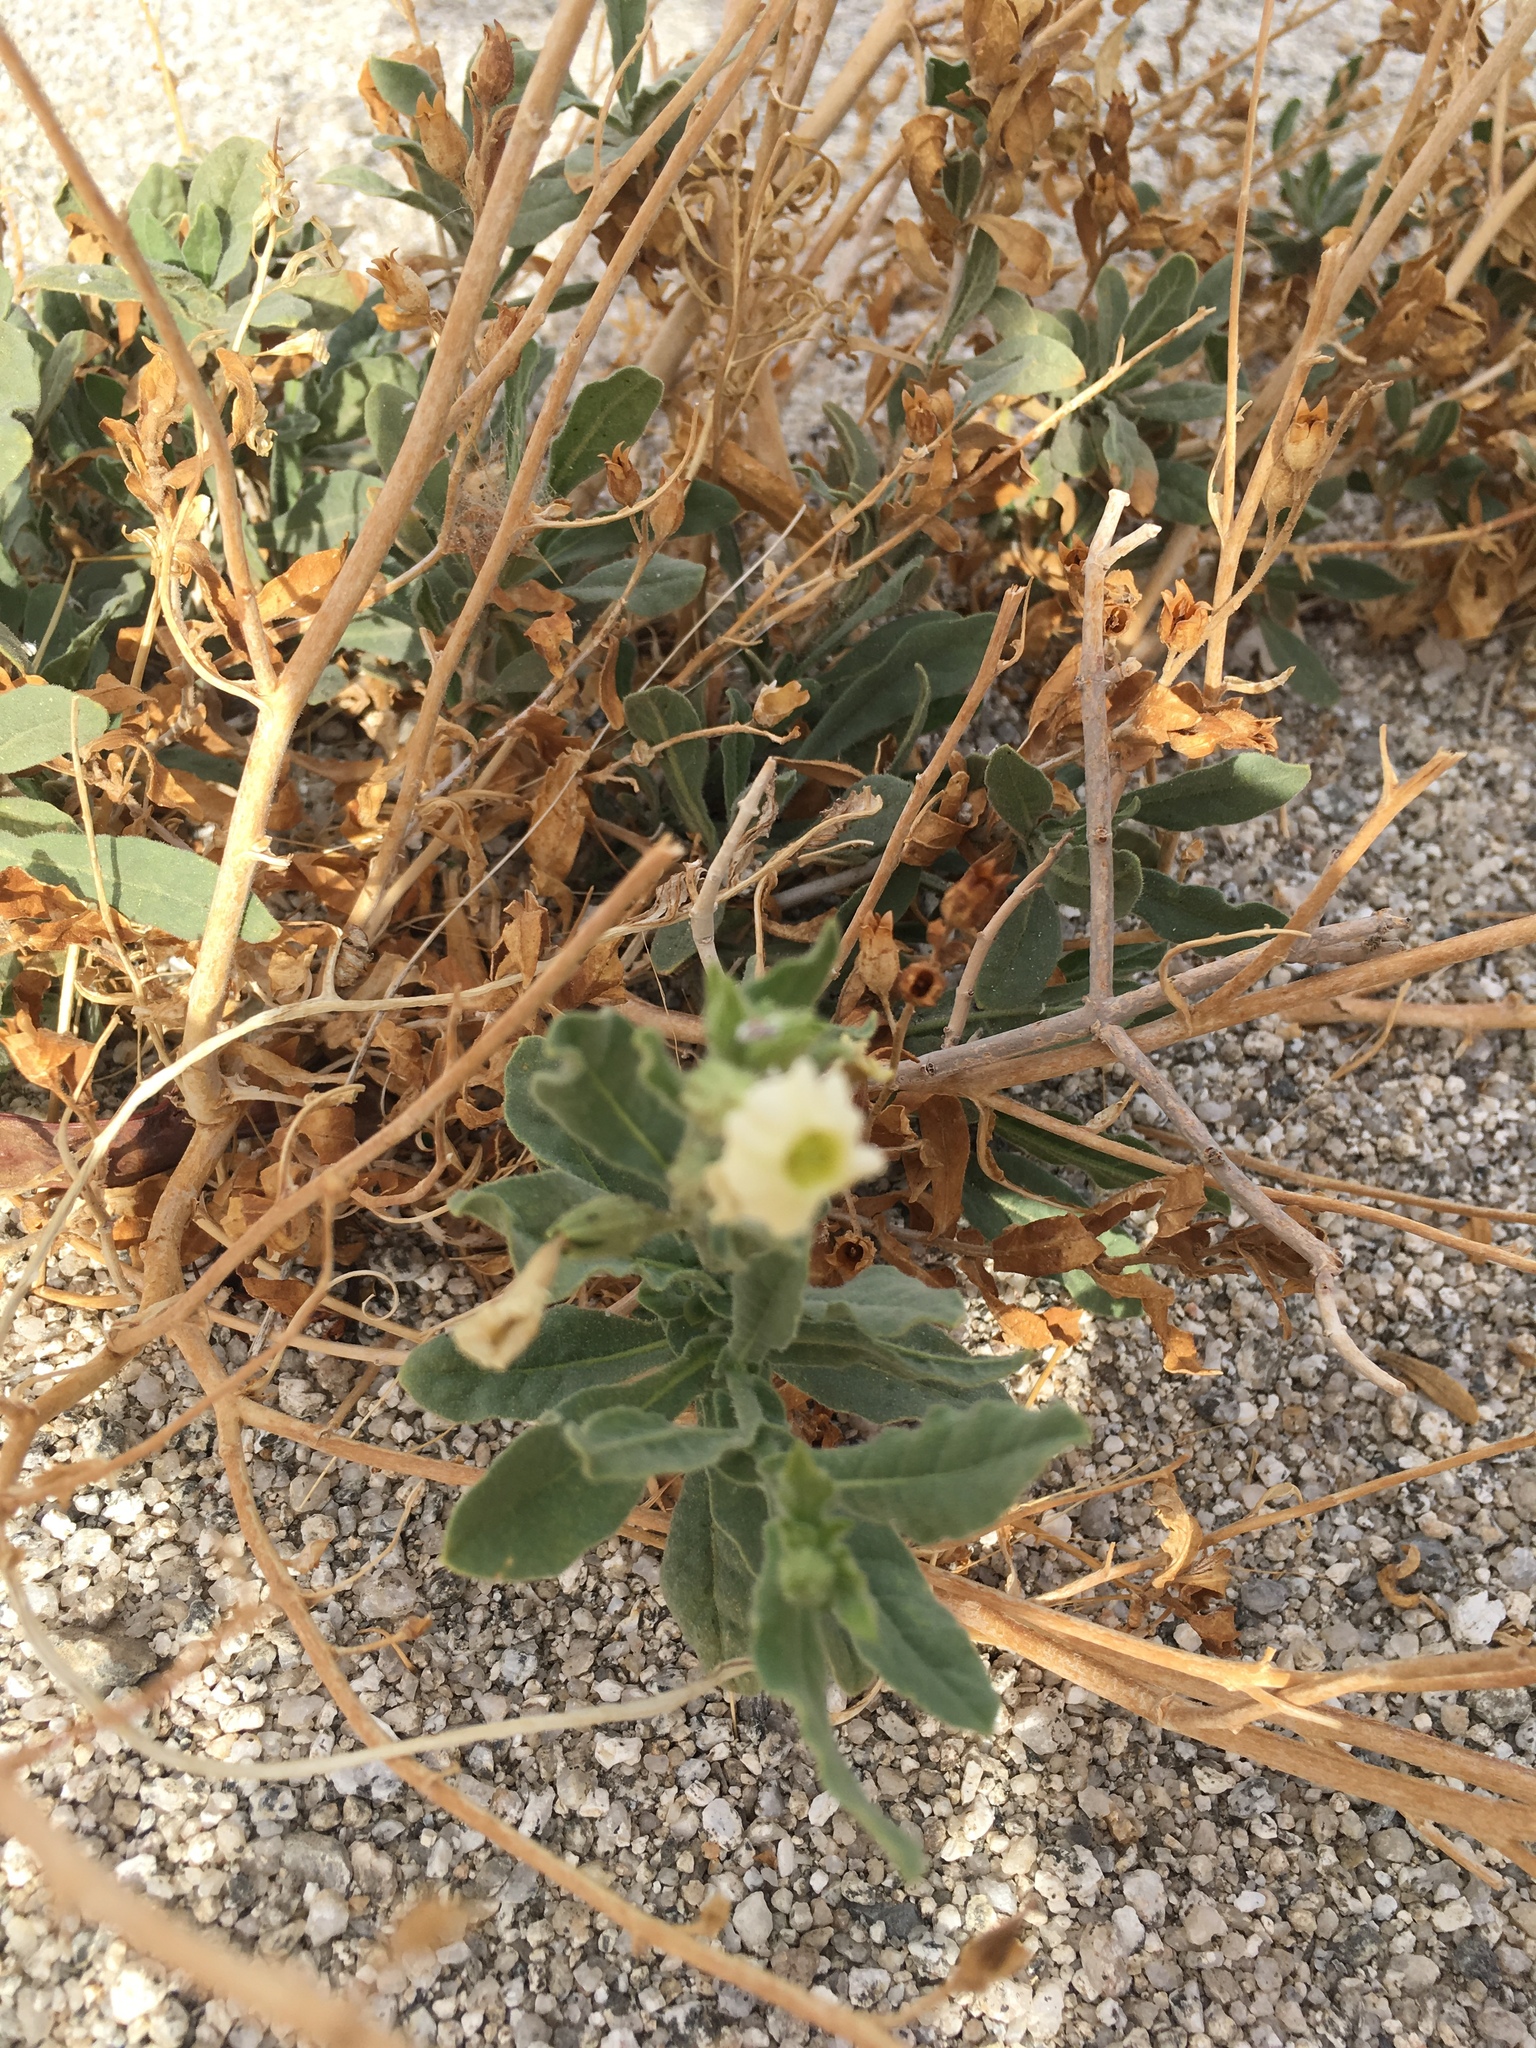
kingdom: Plantae
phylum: Tracheophyta
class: Magnoliopsida
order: Solanales
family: Solanaceae
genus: Nicotiana
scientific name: Nicotiana obtusifolia
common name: Desert tobacco
